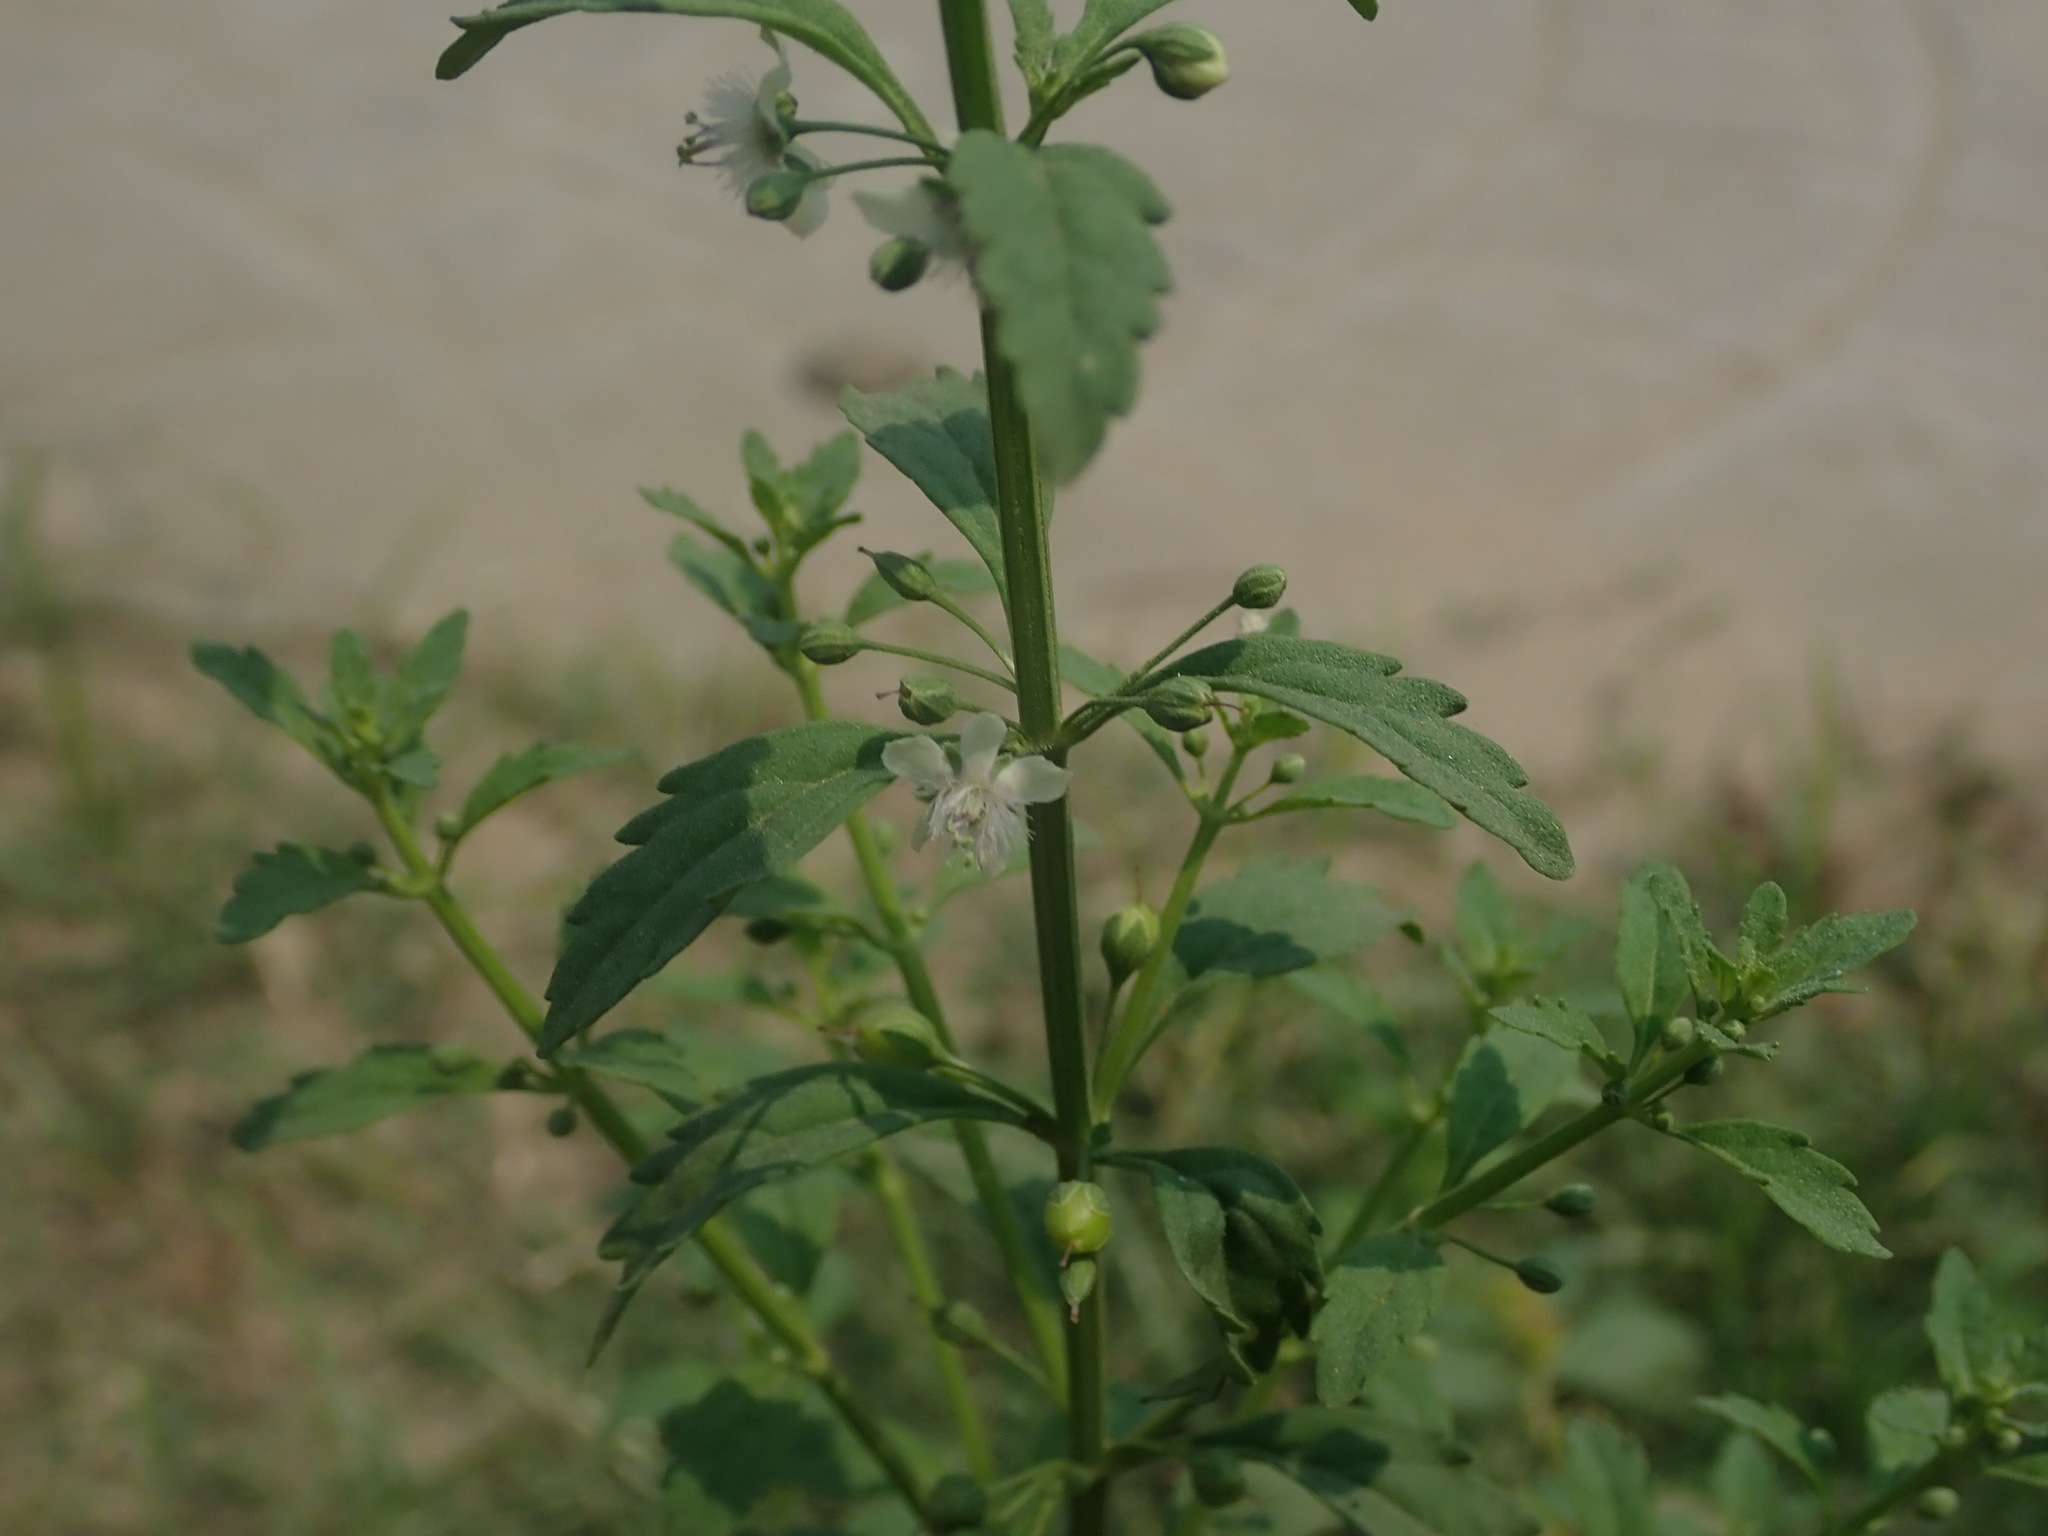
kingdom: Plantae
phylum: Tracheophyta
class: Magnoliopsida
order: Lamiales
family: Plantaginaceae
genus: Scoparia
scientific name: Scoparia dulcis
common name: Scoparia-weed
